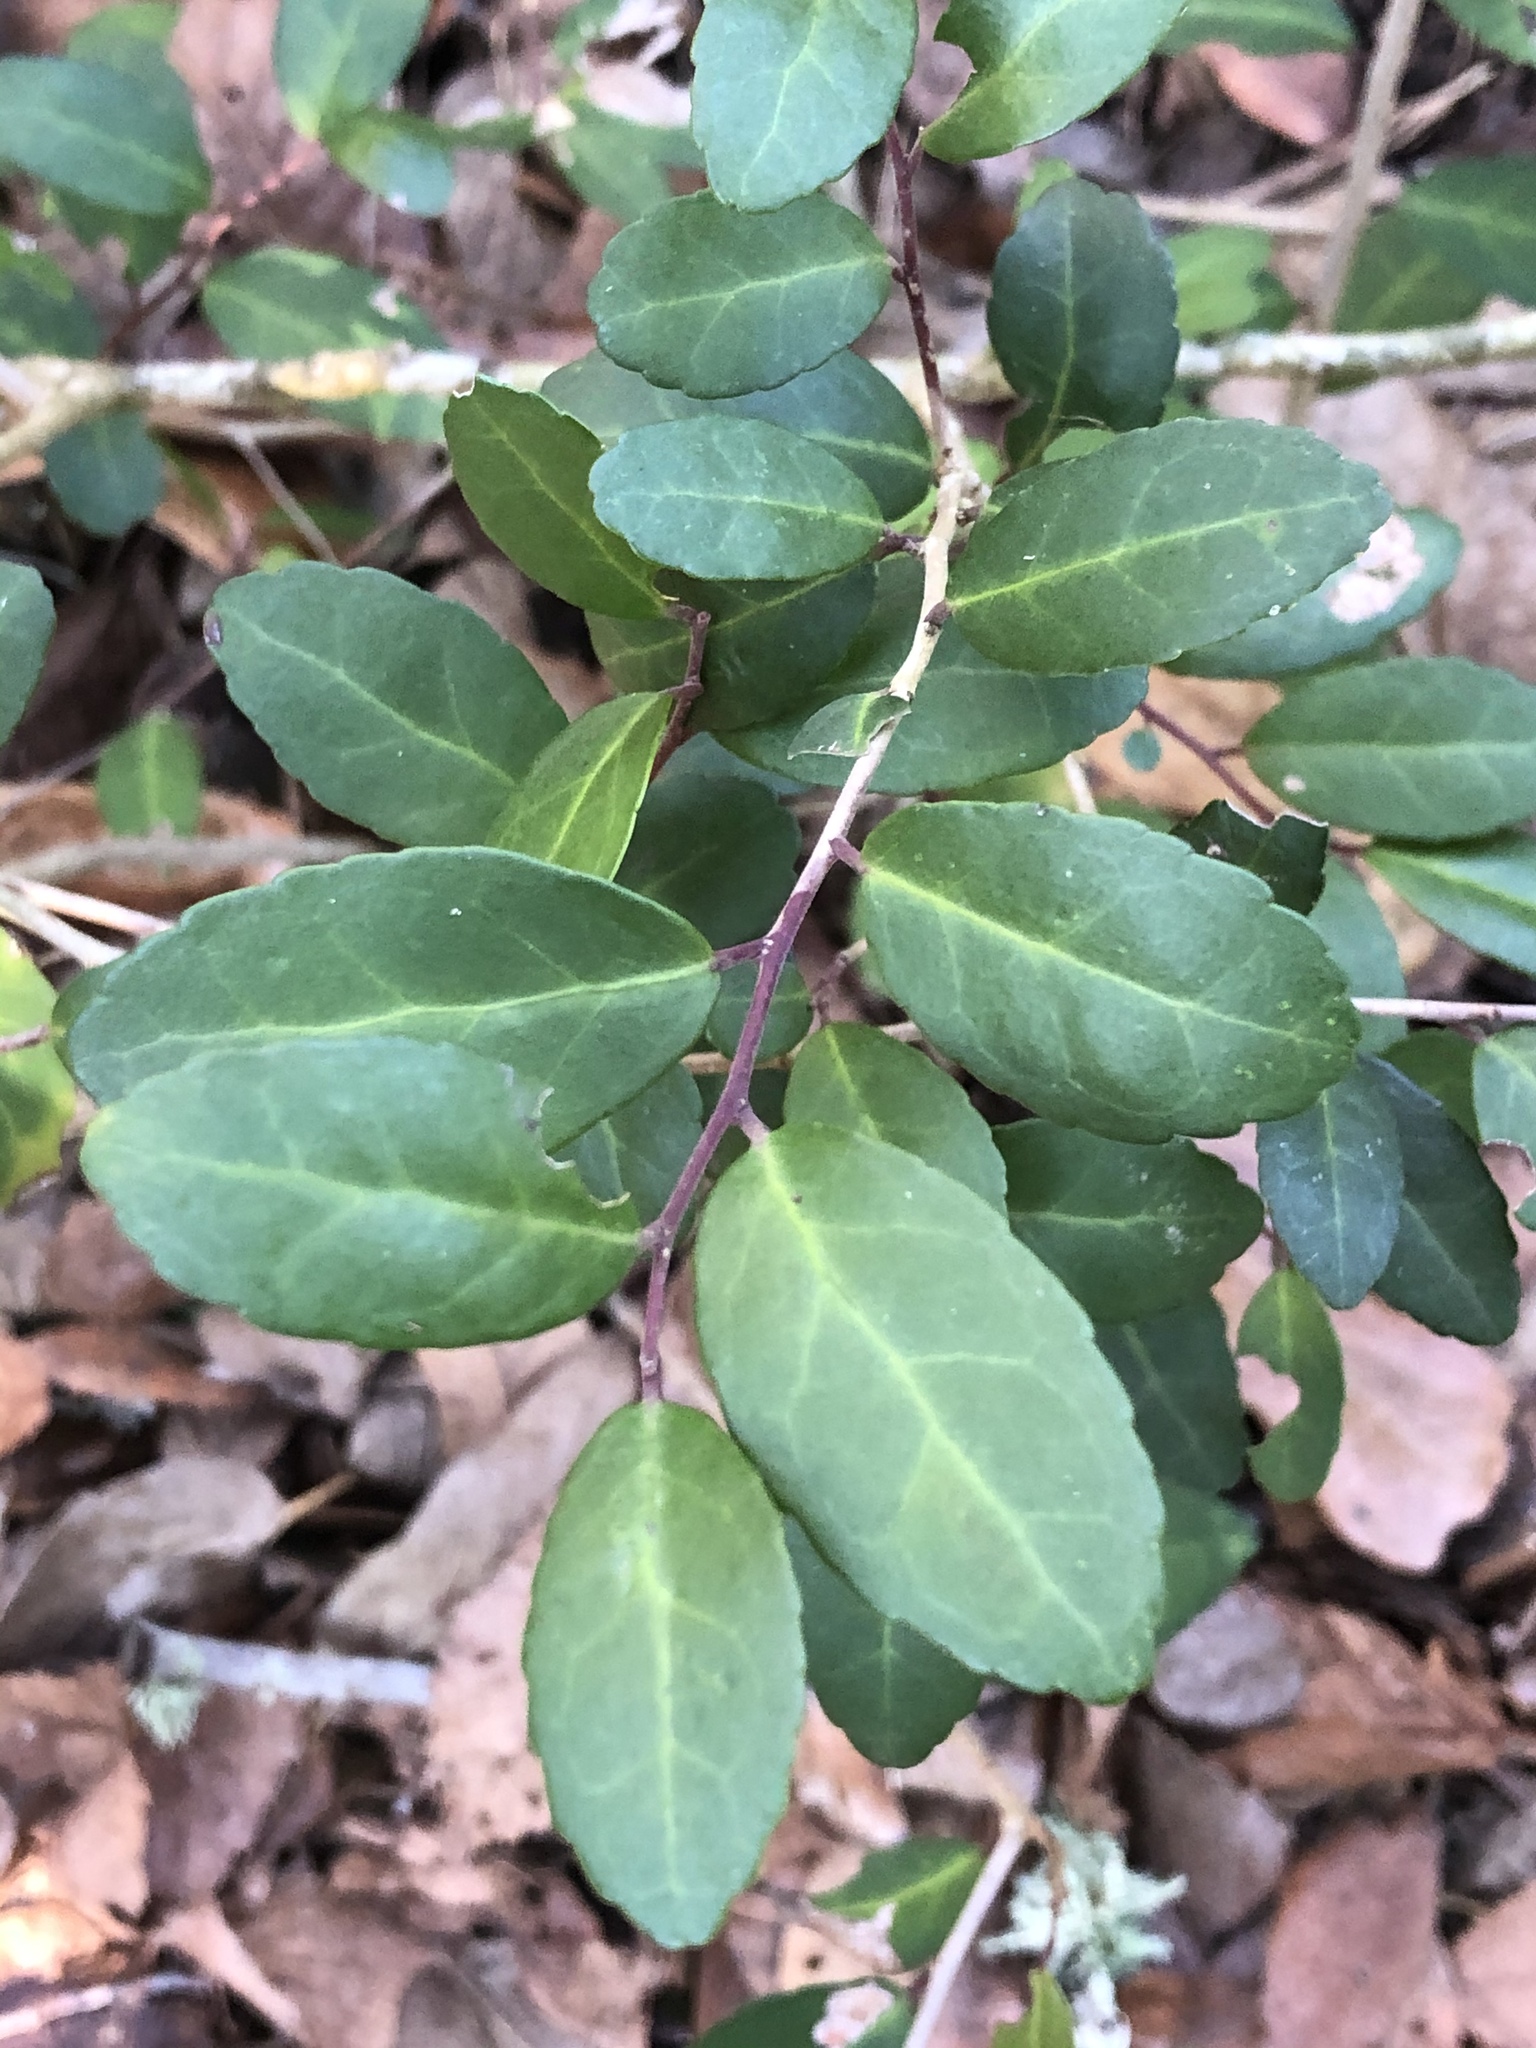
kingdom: Plantae
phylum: Tracheophyta
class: Magnoliopsida
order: Aquifoliales
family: Aquifoliaceae
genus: Ilex
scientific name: Ilex vomitoria
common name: Yaupon holly
